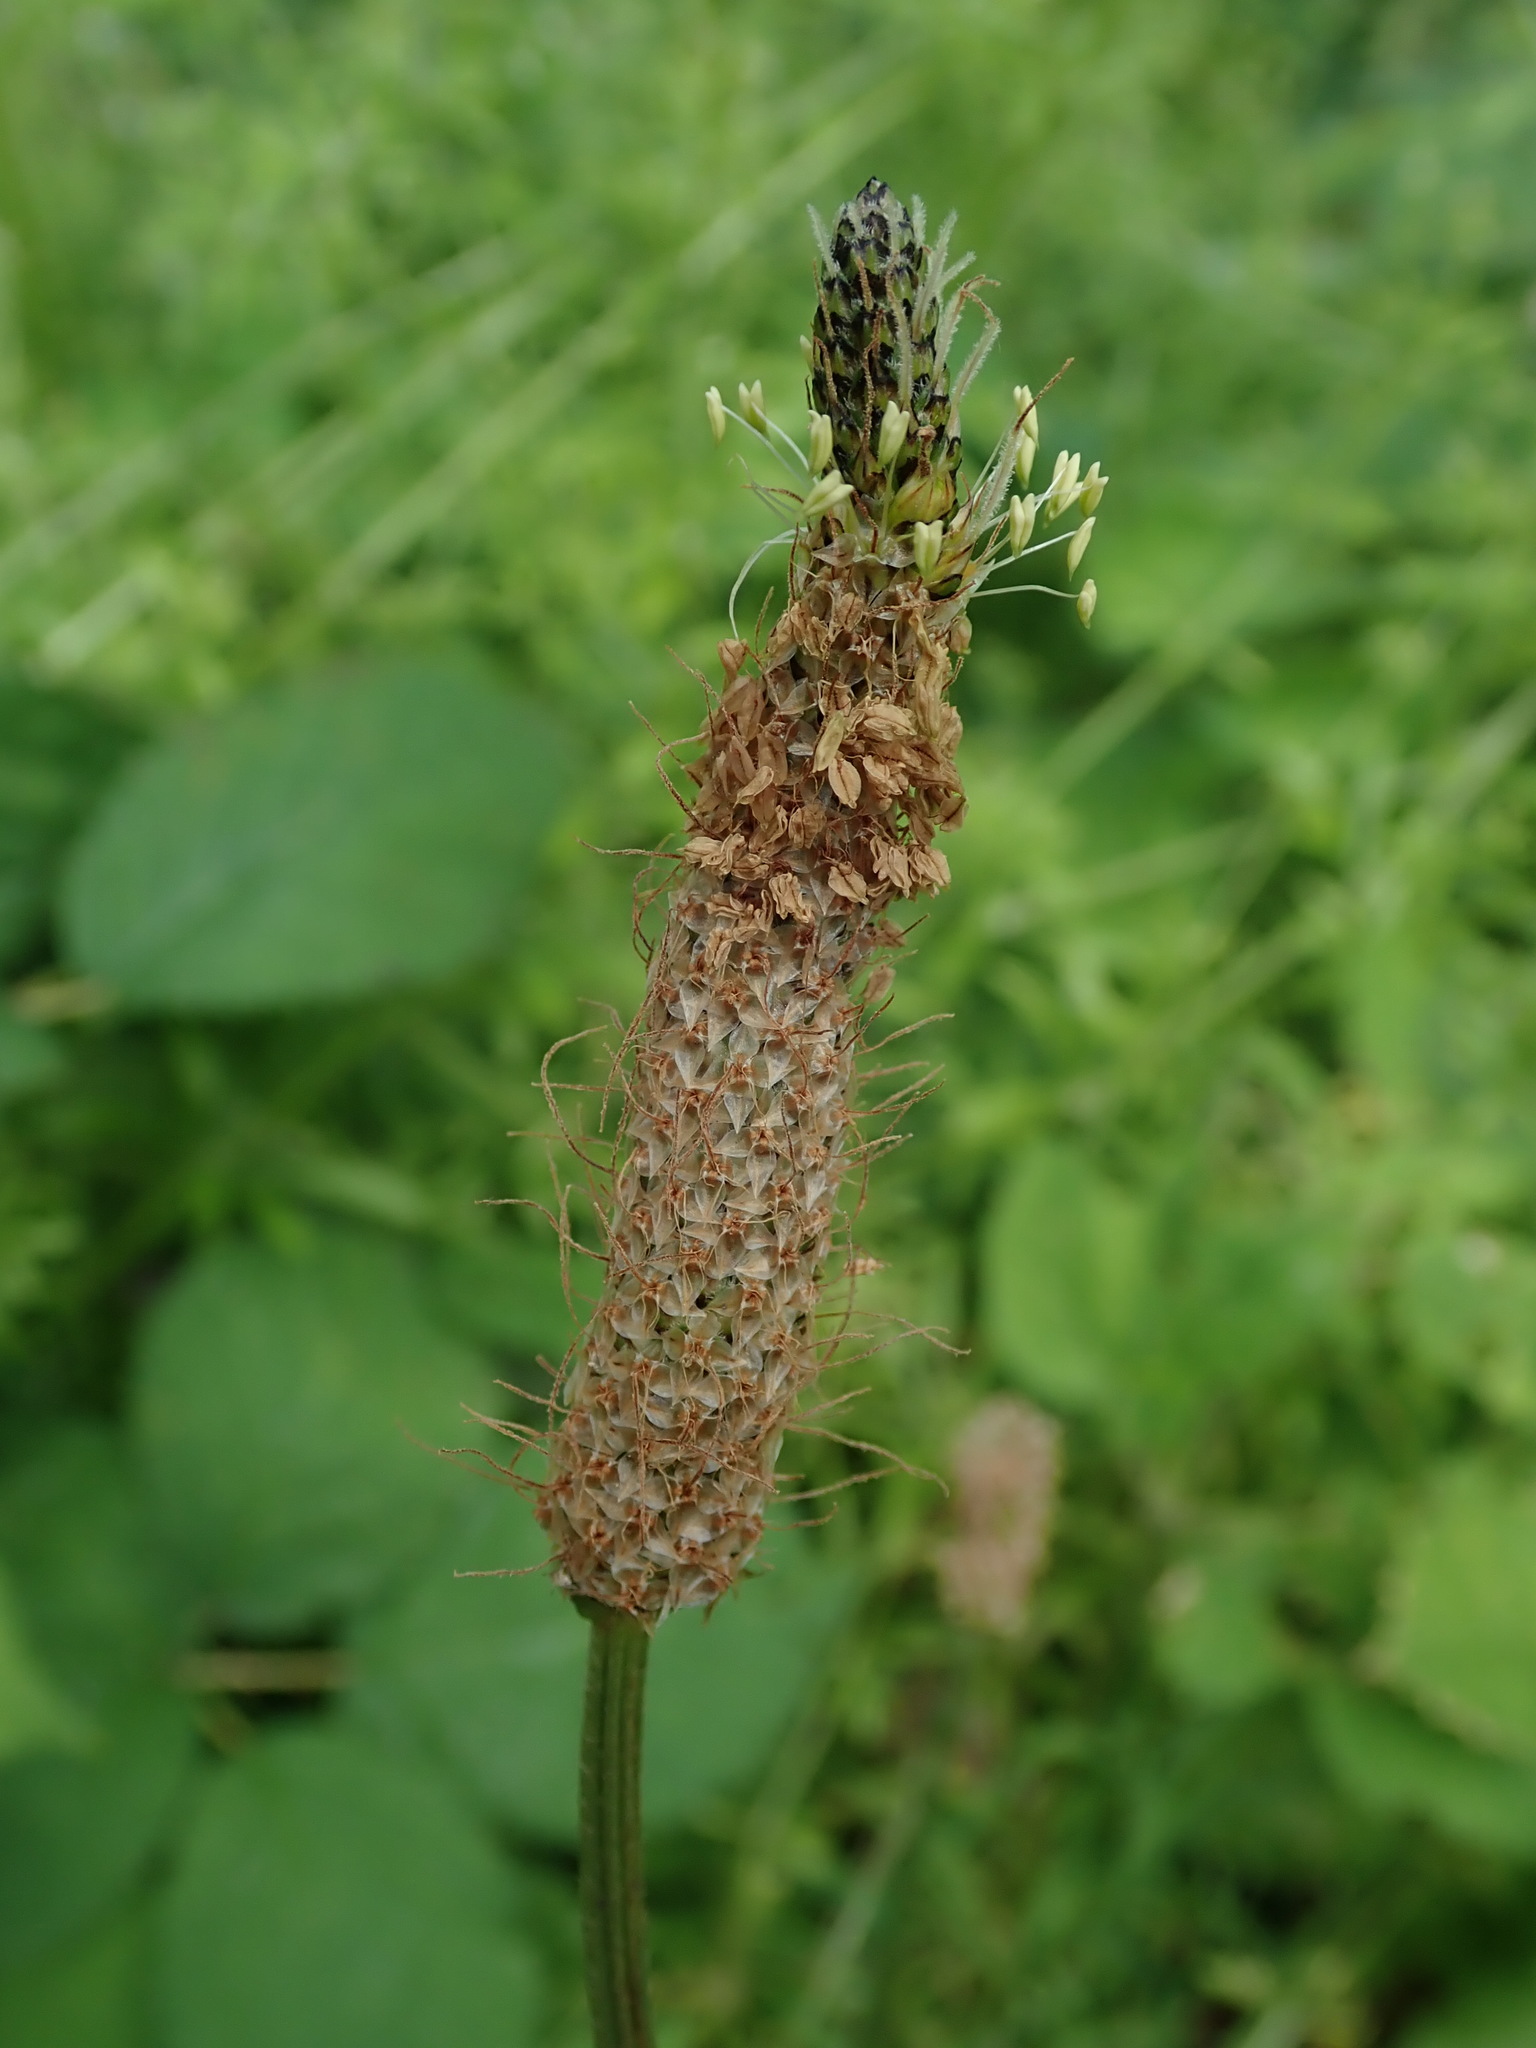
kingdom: Plantae
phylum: Tracheophyta
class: Magnoliopsida
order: Lamiales
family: Plantaginaceae
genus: Plantago
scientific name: Plantago lanceolata
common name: Ribwort plantain
